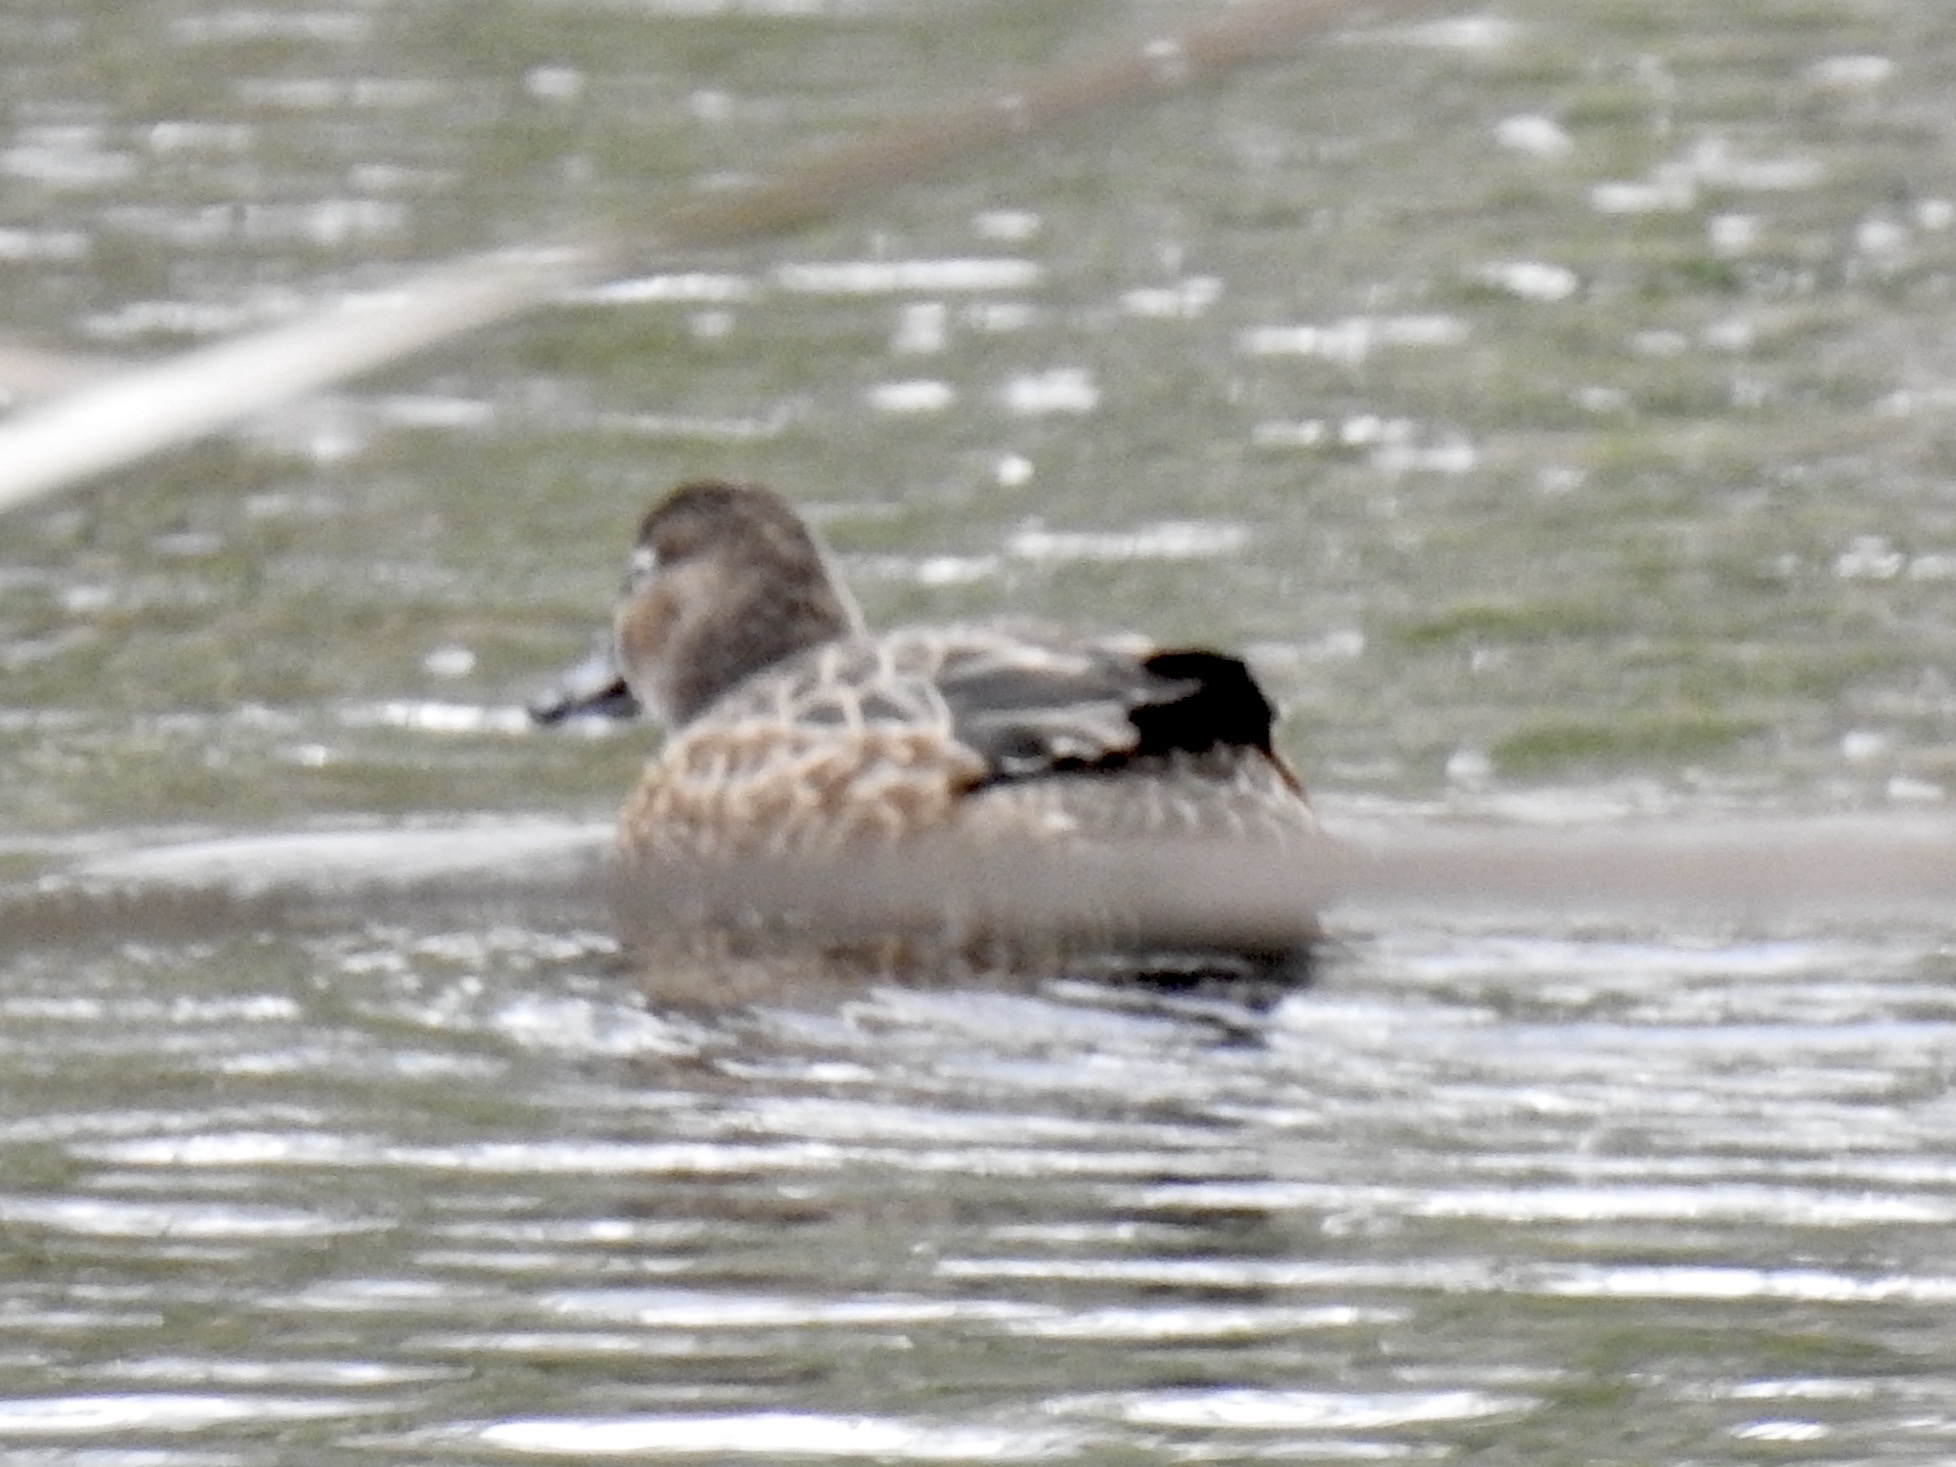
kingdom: Animalia
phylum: Chordata
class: Aves
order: Anseriformes
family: Anatidae
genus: Spatula
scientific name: Spatula discors
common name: Blue-winged teal
